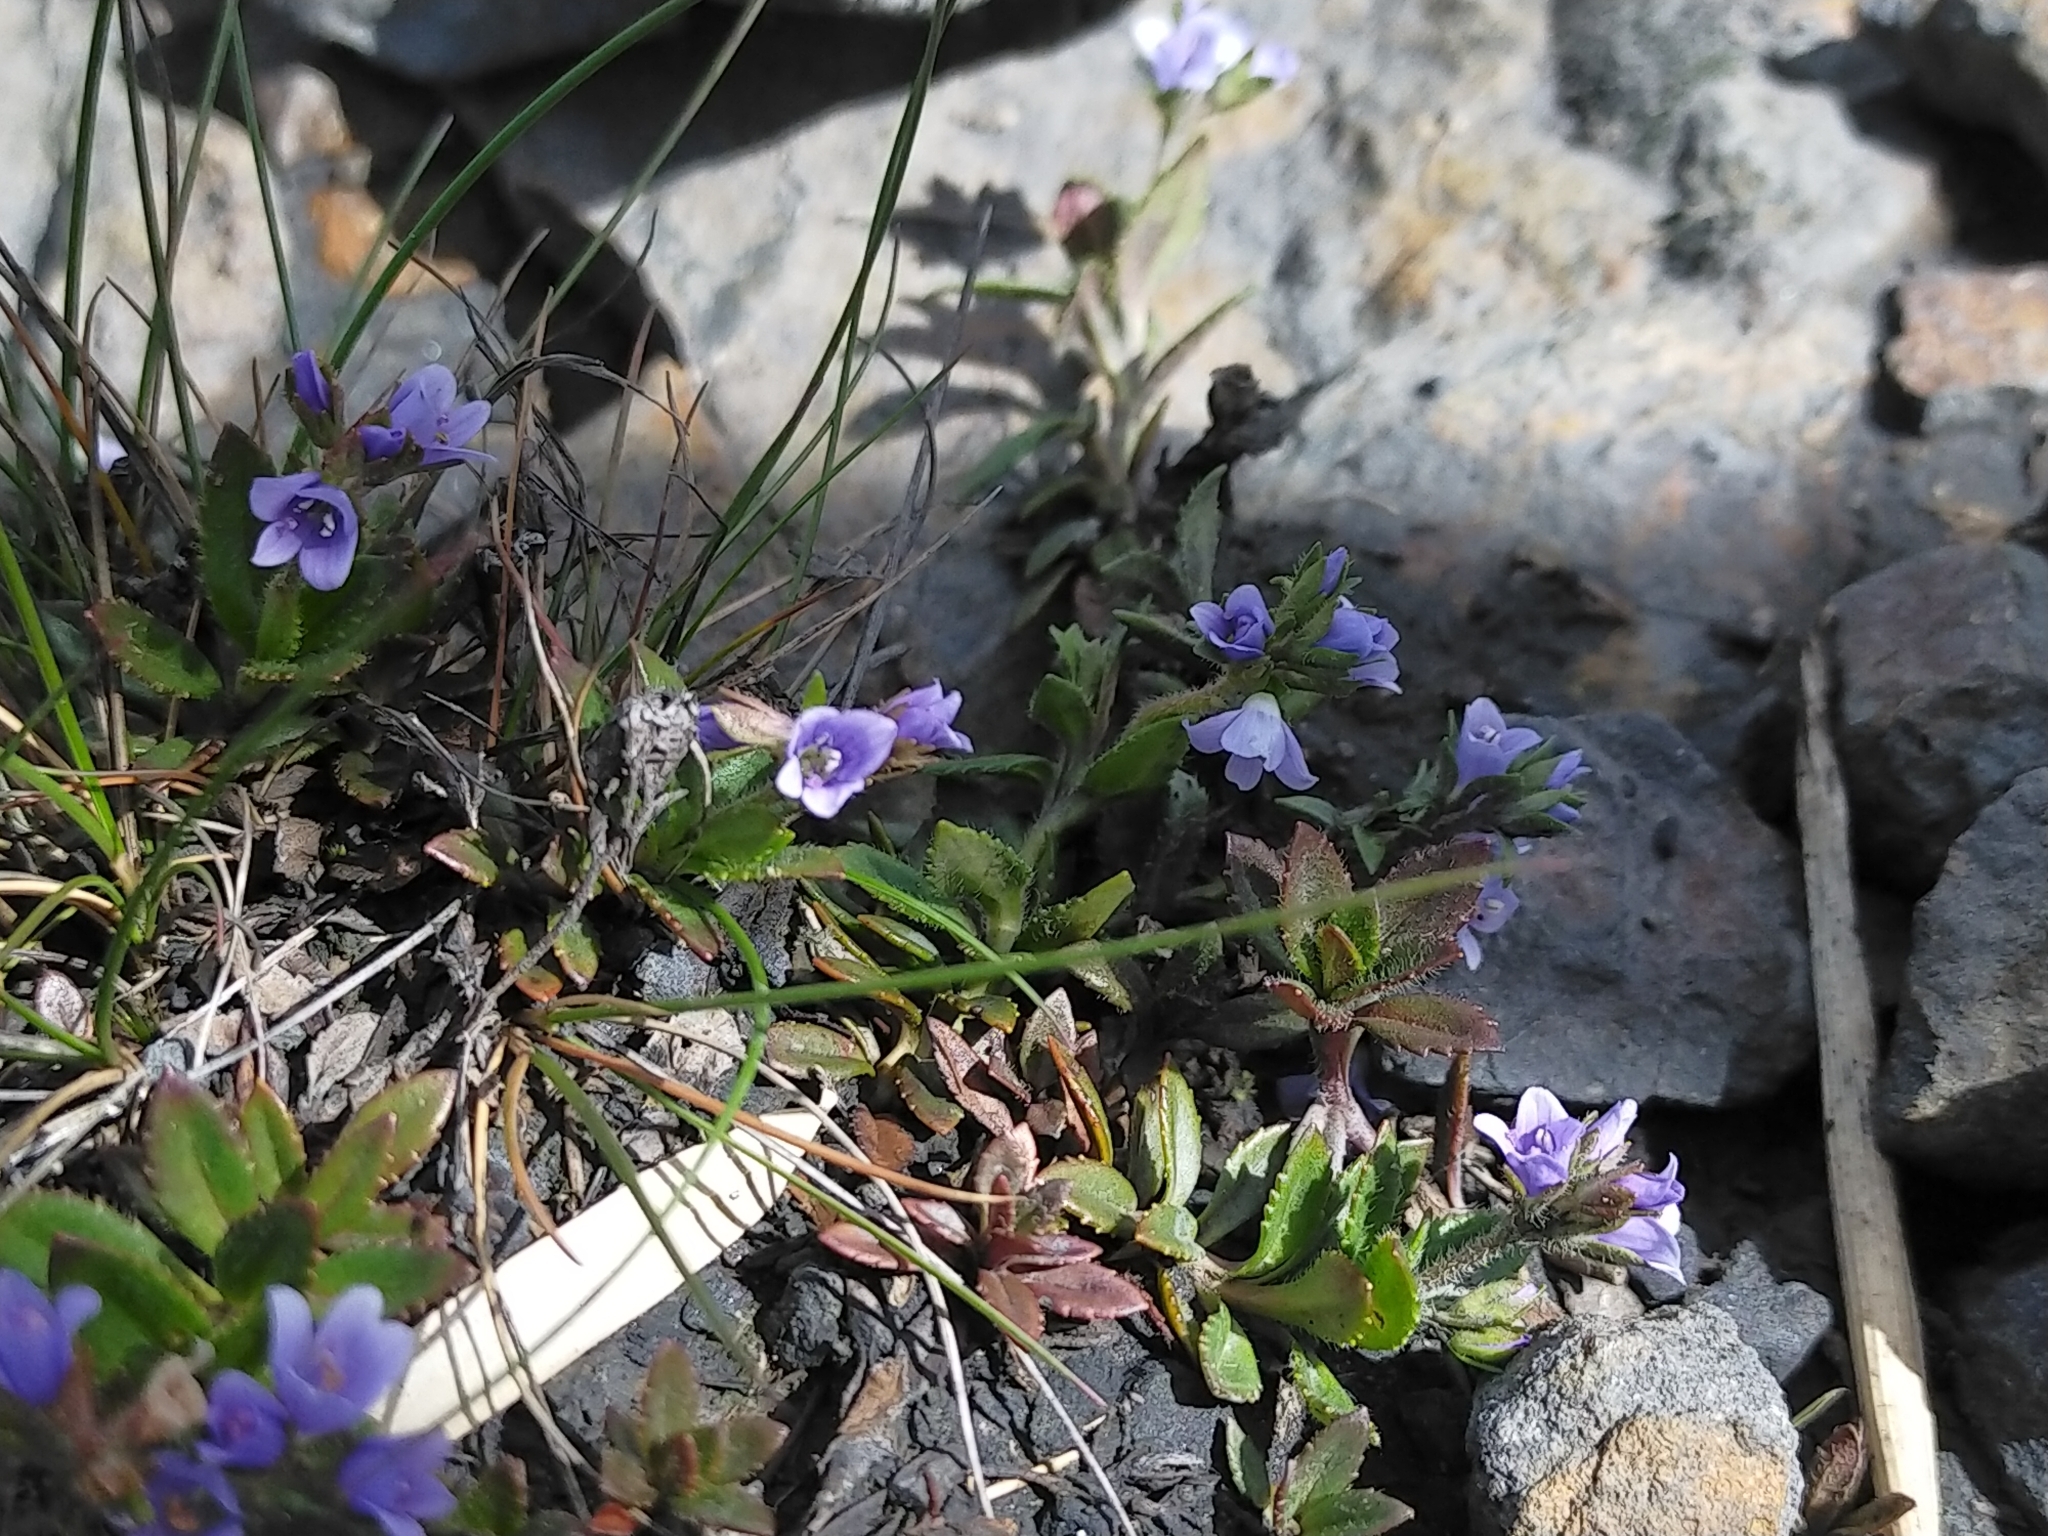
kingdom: Plantae
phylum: Tracheophyta
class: Magnoliopsida
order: Lamiales
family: Plantaginaceae
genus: Veronica
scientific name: Veronica morrisonicola
